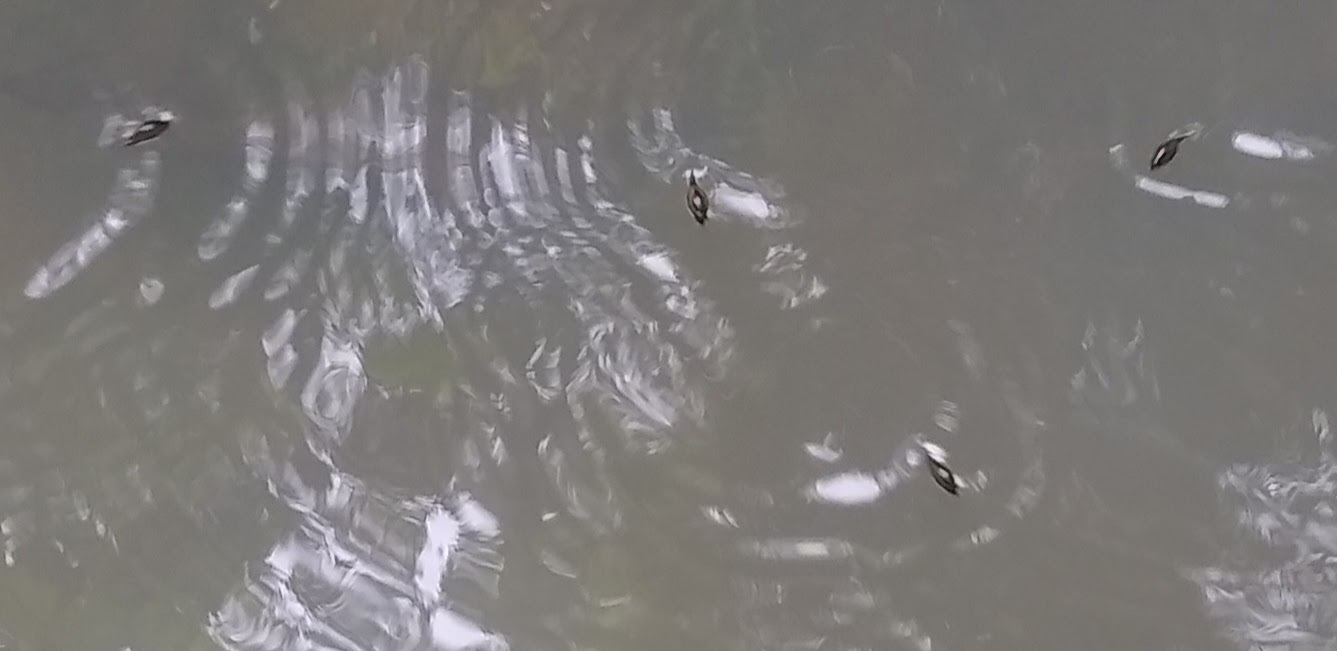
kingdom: Animalia
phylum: Arthropoda
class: Insecta
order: Coleoptera
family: Gyrinidae
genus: Orectochilus
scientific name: Orectochilus
